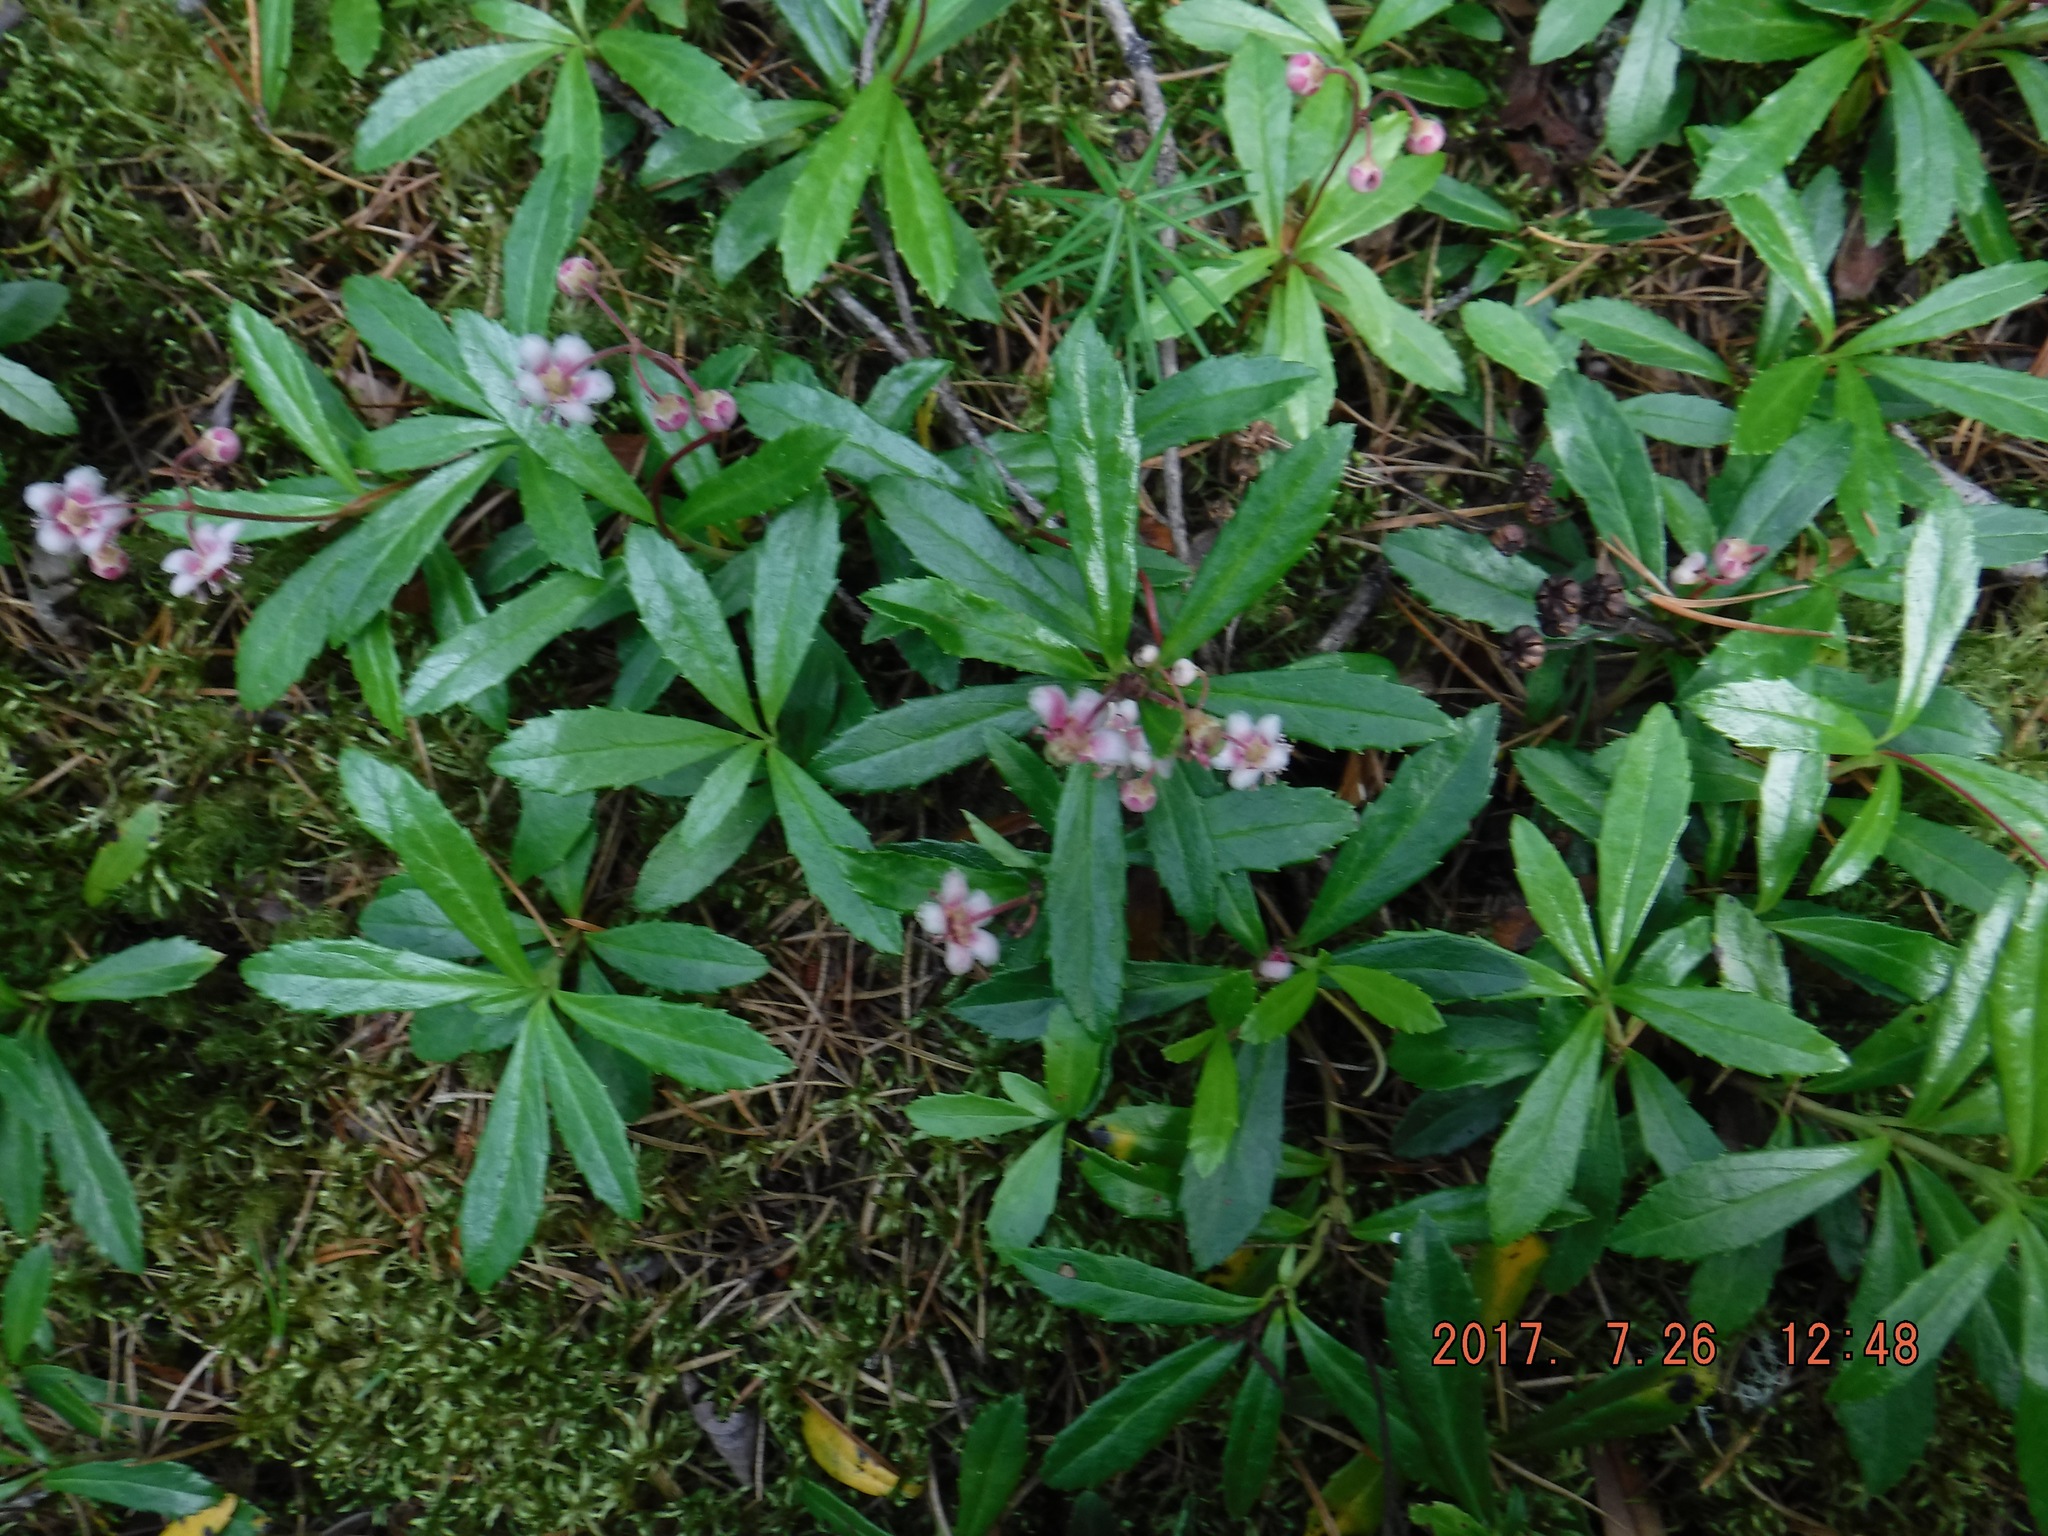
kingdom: Plantae
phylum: Tracheophyta
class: Magnoliopsida
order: Ericales
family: Ericaceae
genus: Chimaphila
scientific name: Chimaphila umbellata
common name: Pipsissewa
